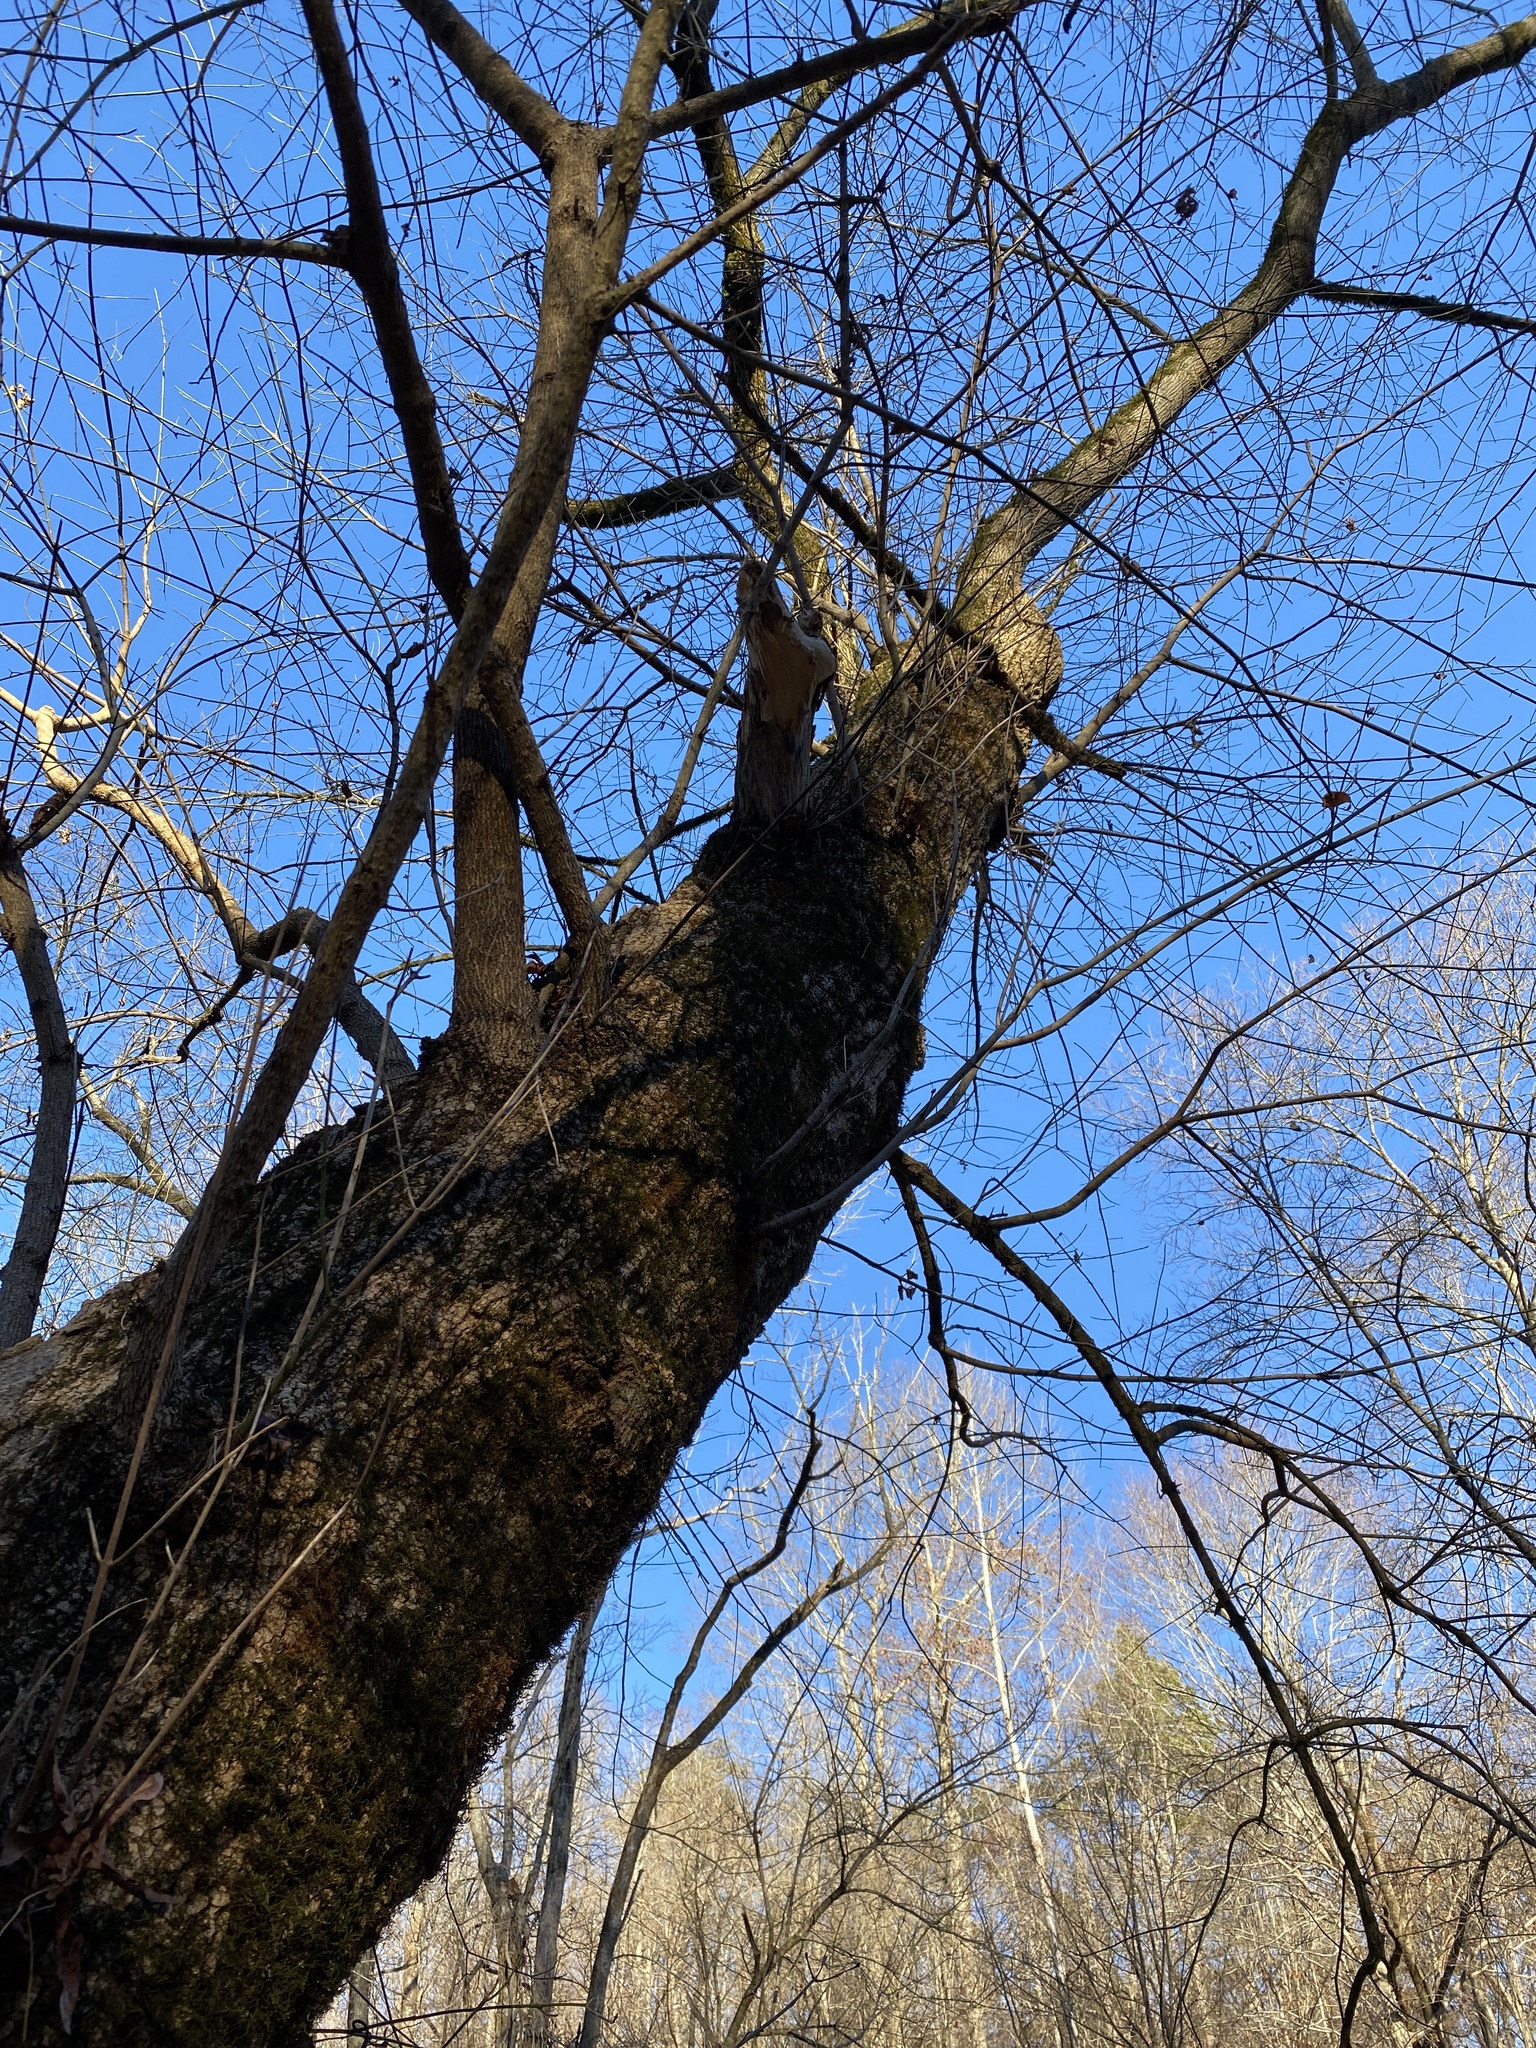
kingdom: Plantae
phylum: Tracheophyta
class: Magnoliopsida
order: Sapindales
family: Sapindaceae
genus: Acer
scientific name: Acer negundo
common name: Ashleaf maple
